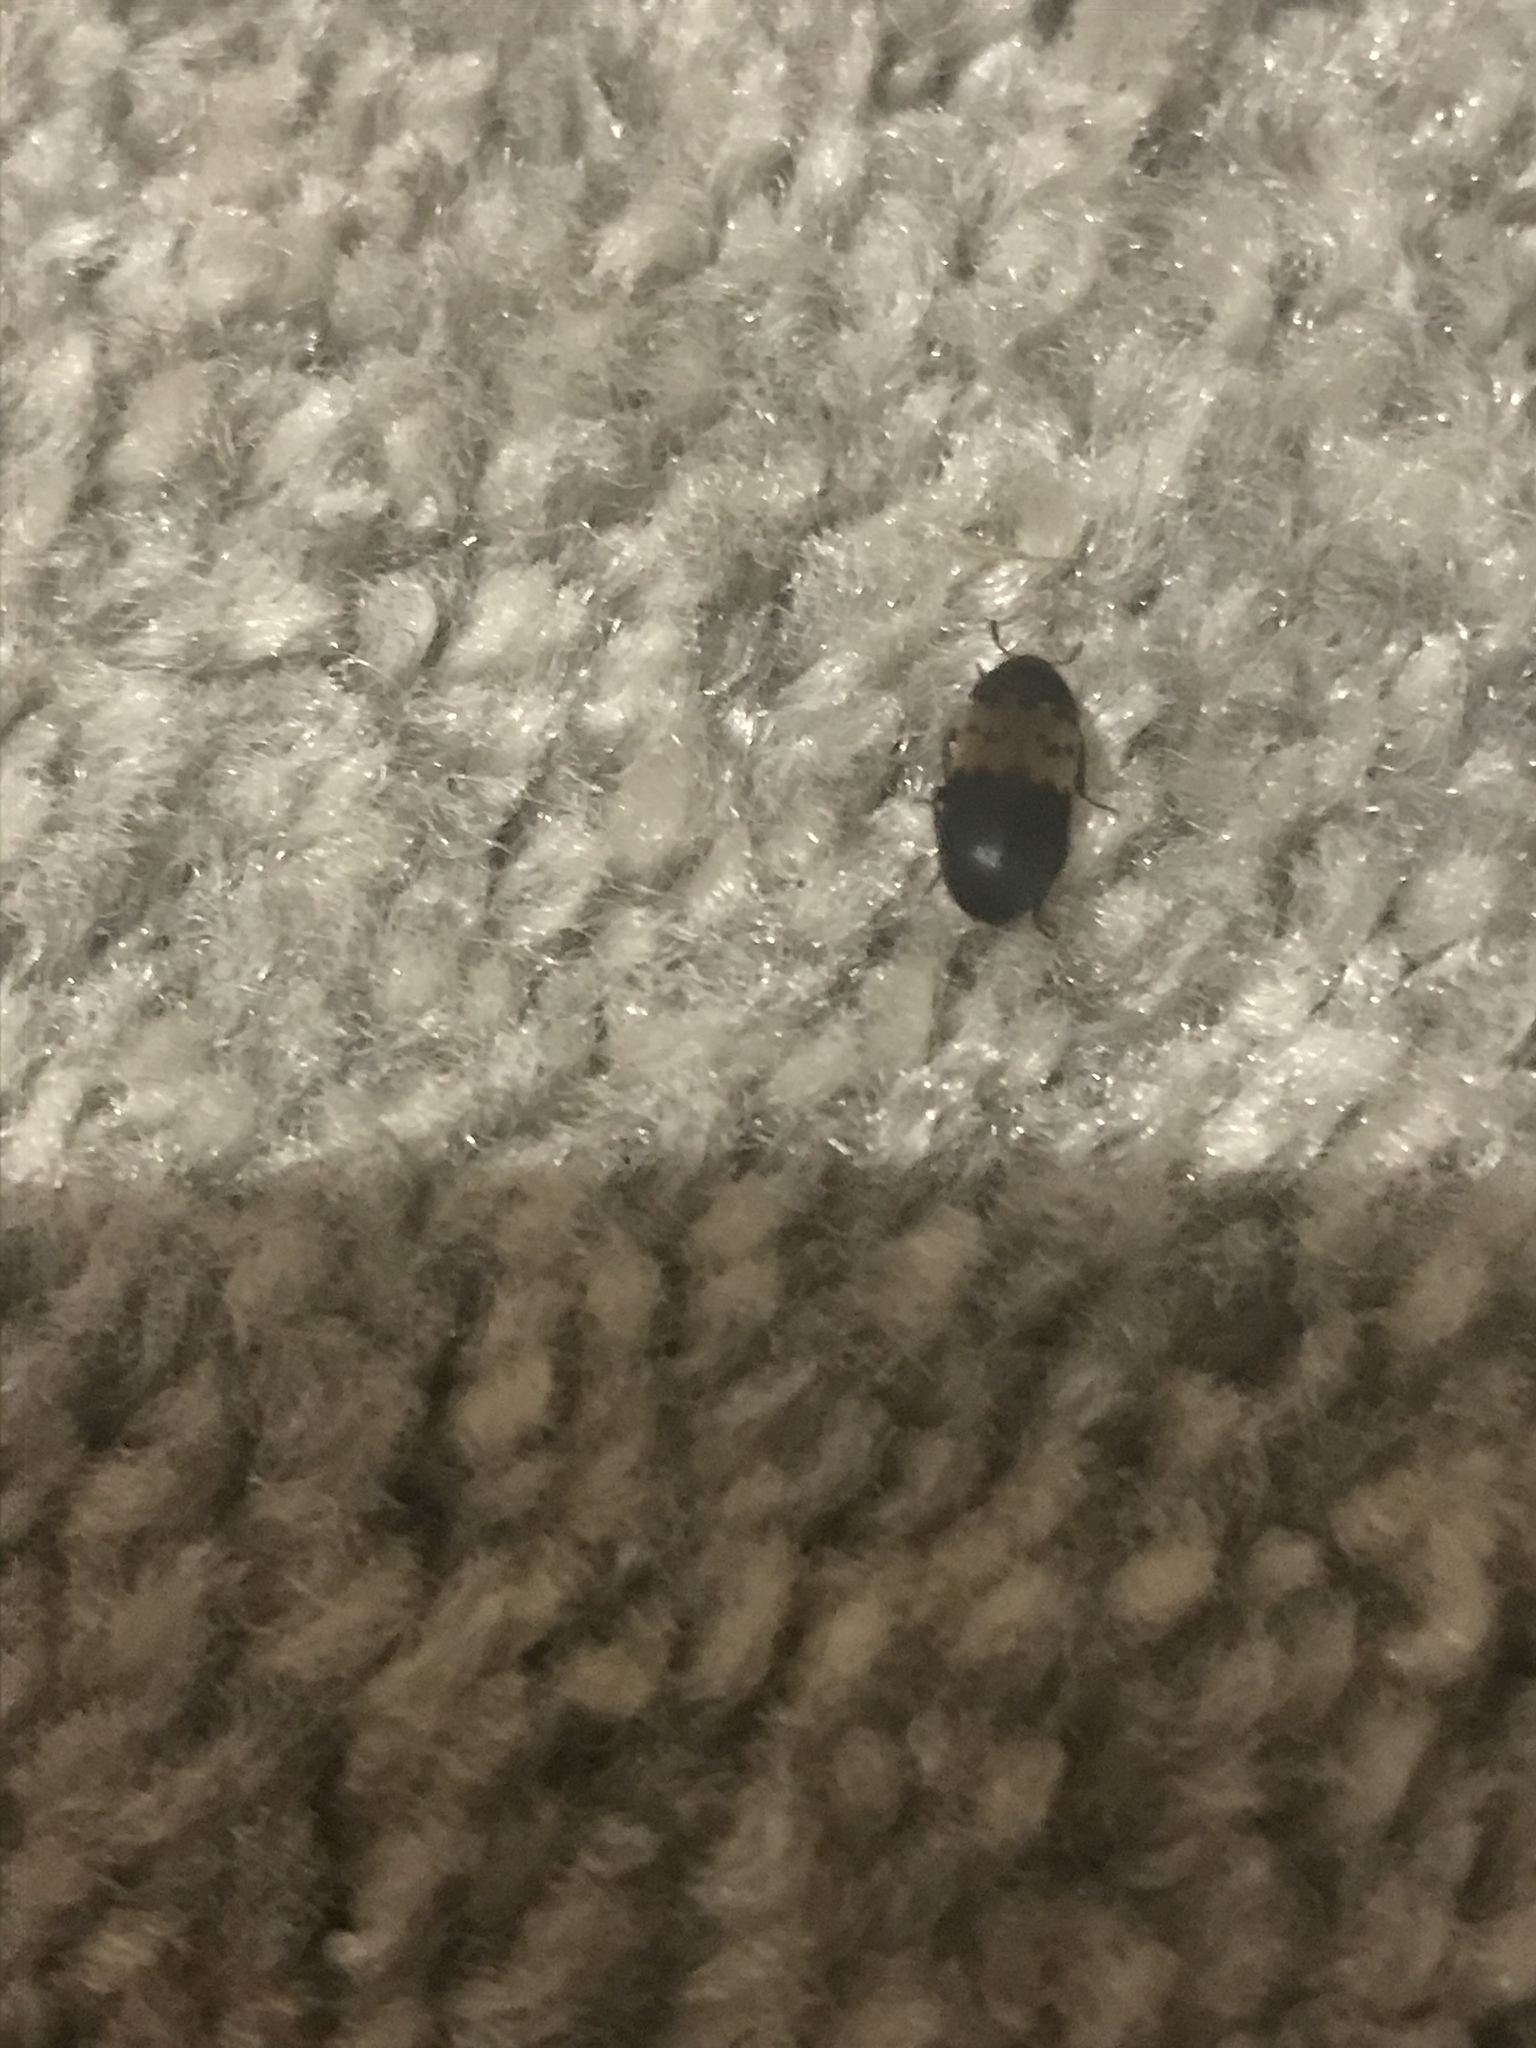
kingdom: Animalia
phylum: Arthropoda
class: Insecta
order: Coleoptera
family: Dermestidae
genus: Dermestes
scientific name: Dermestes lardarius
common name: Larder beetle
